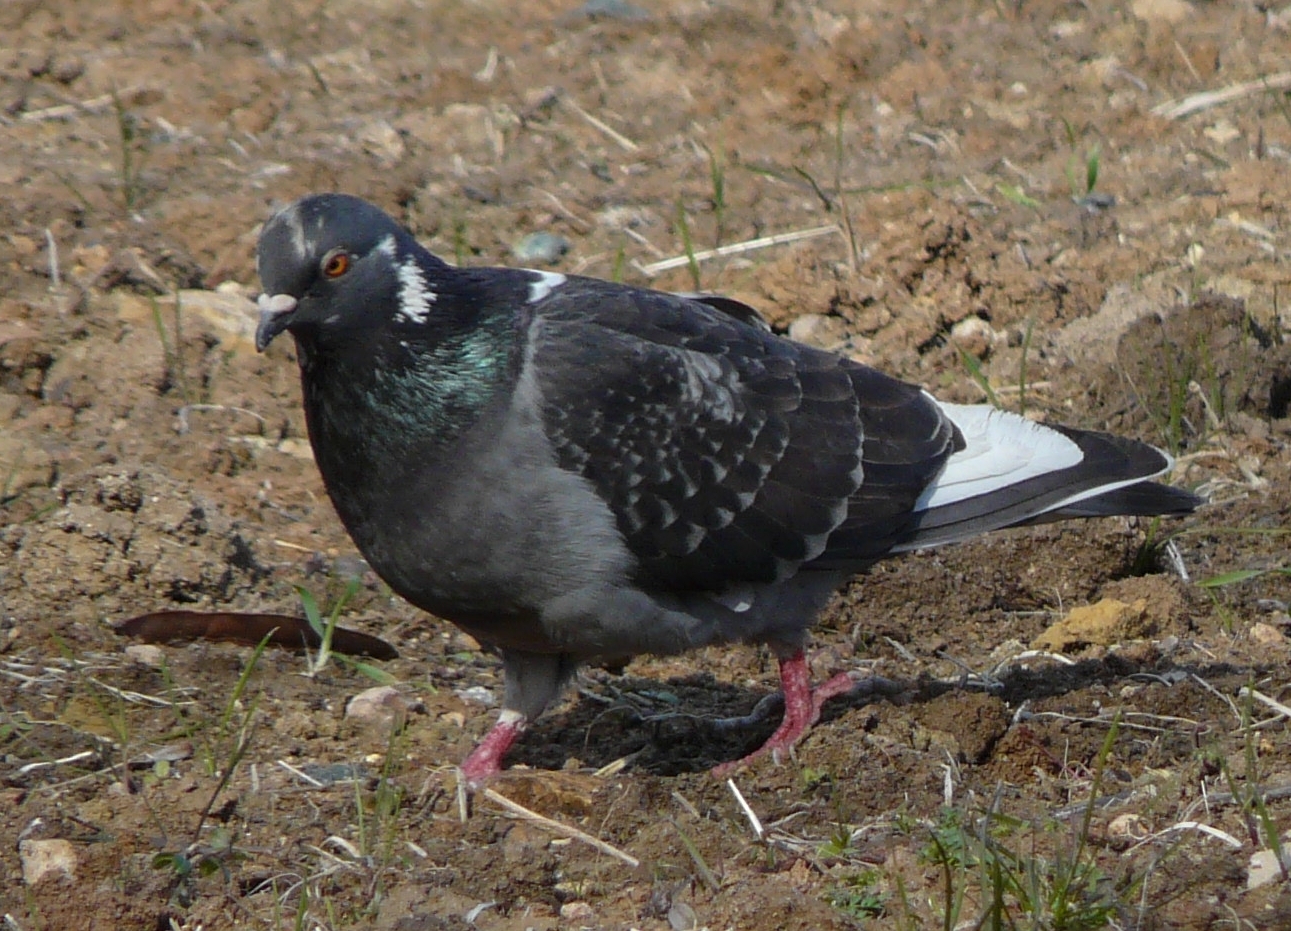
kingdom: Animalia
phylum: Chordata
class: Aves
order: Columbiformes
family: Columbidae
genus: Columba
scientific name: Columba livia
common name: Rock pigeon
